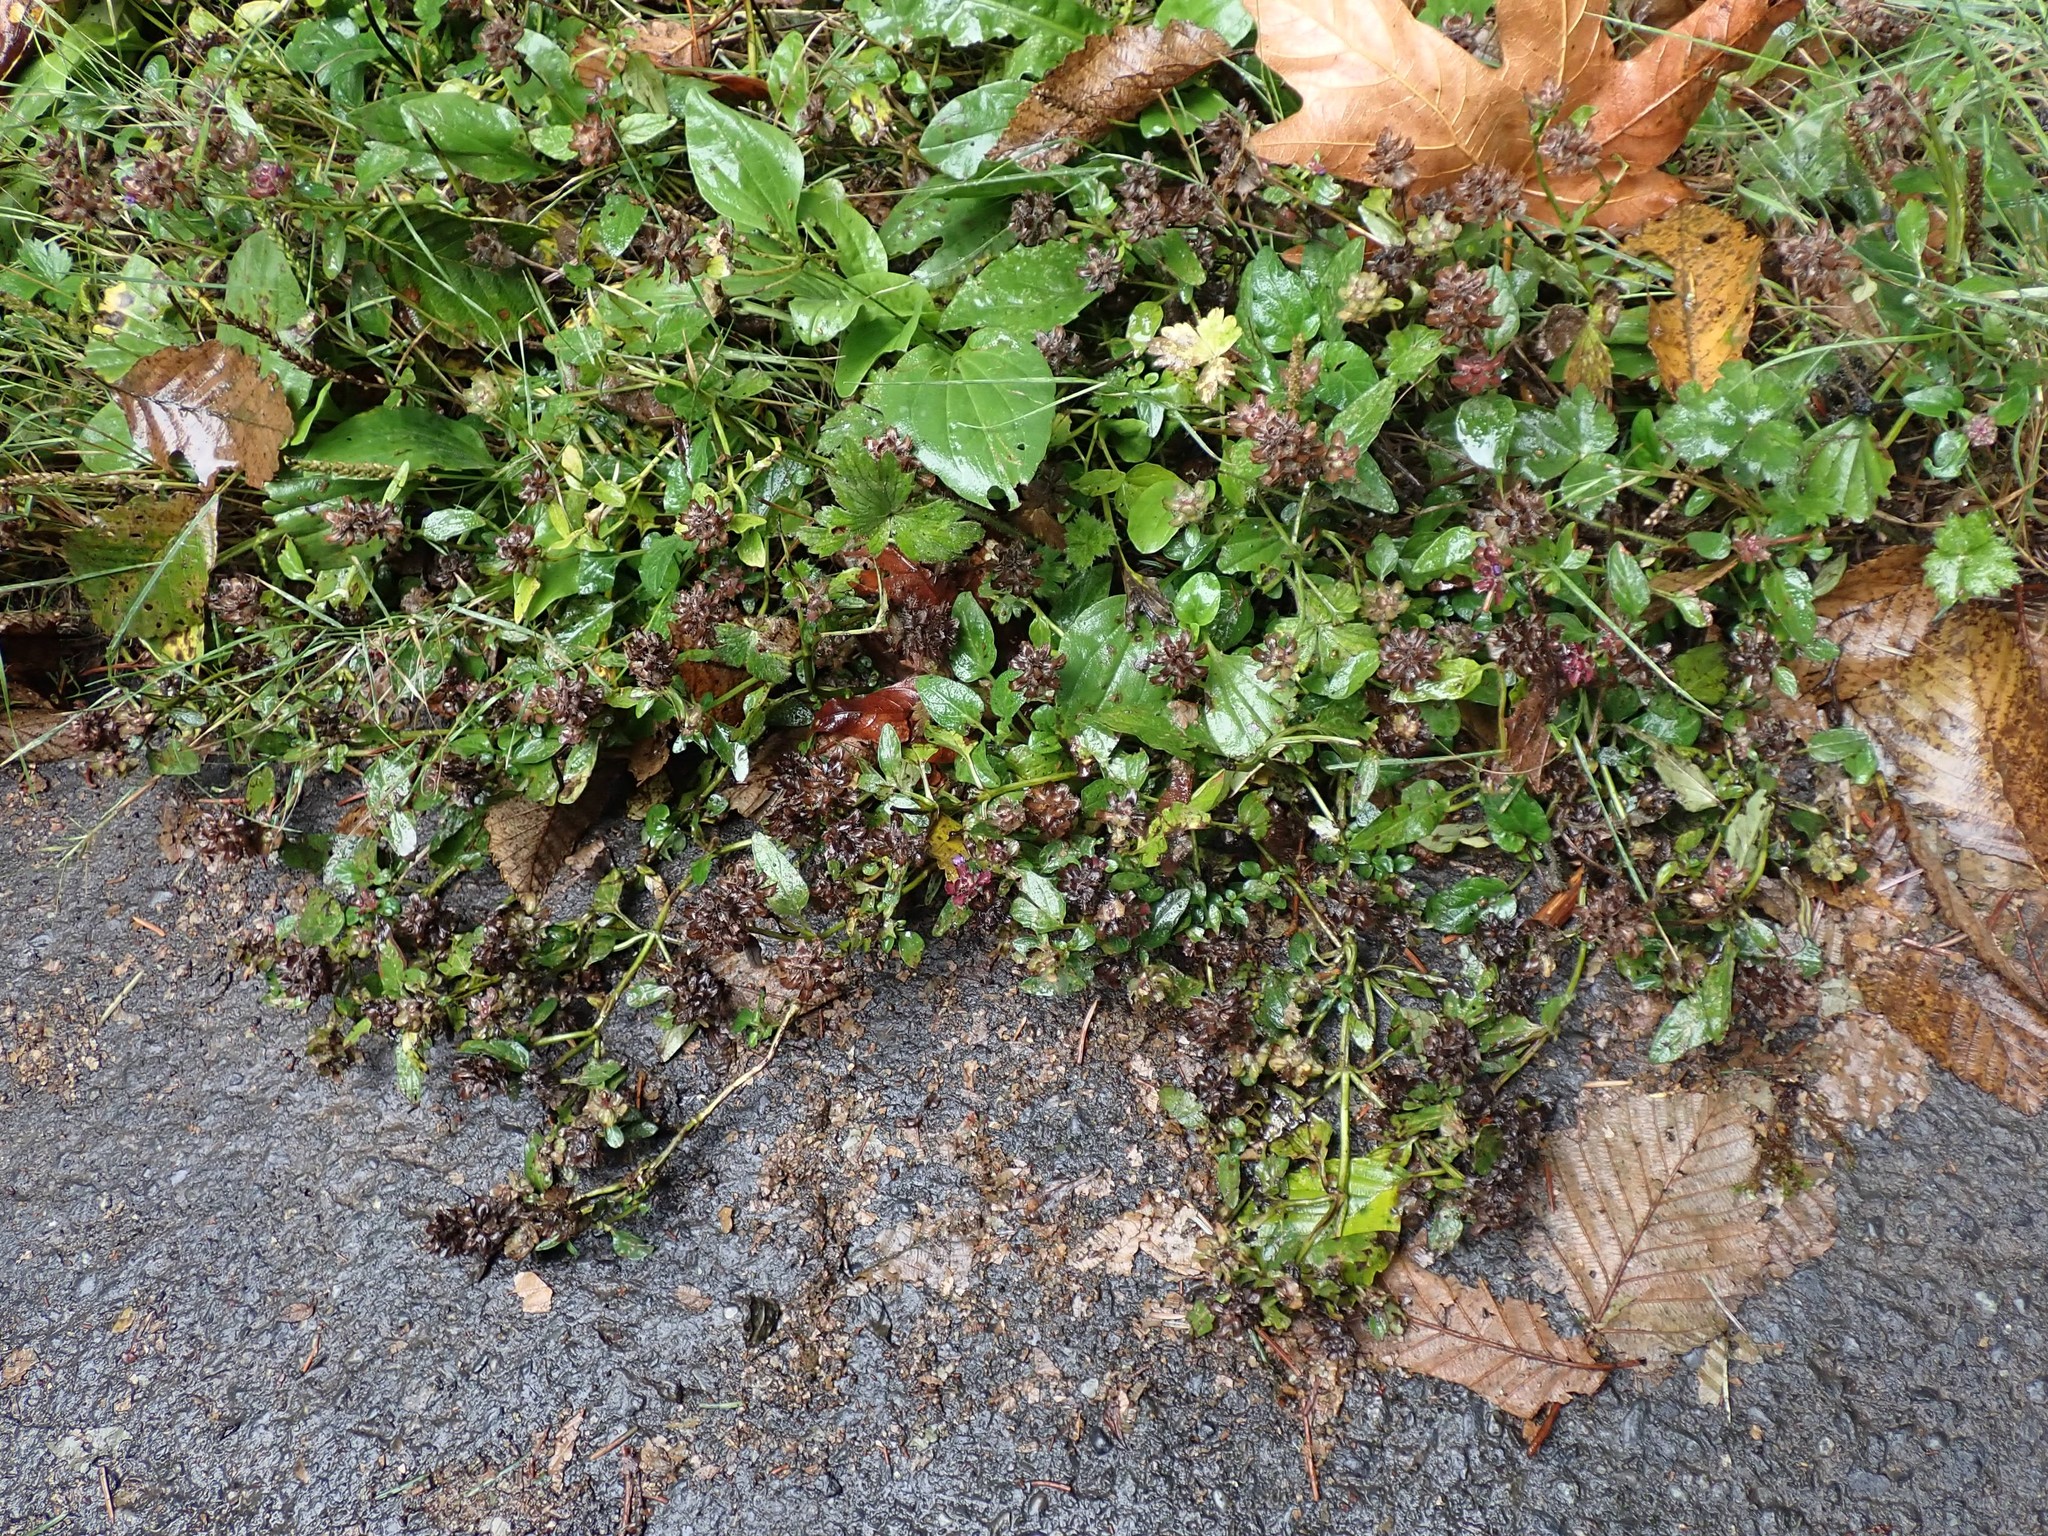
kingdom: Plantae
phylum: Tracheophyta
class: Magnoliopsida
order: Lamiales
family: Lamiaceae
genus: Prunella
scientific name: Prunella vulgaris
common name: Heal-all
